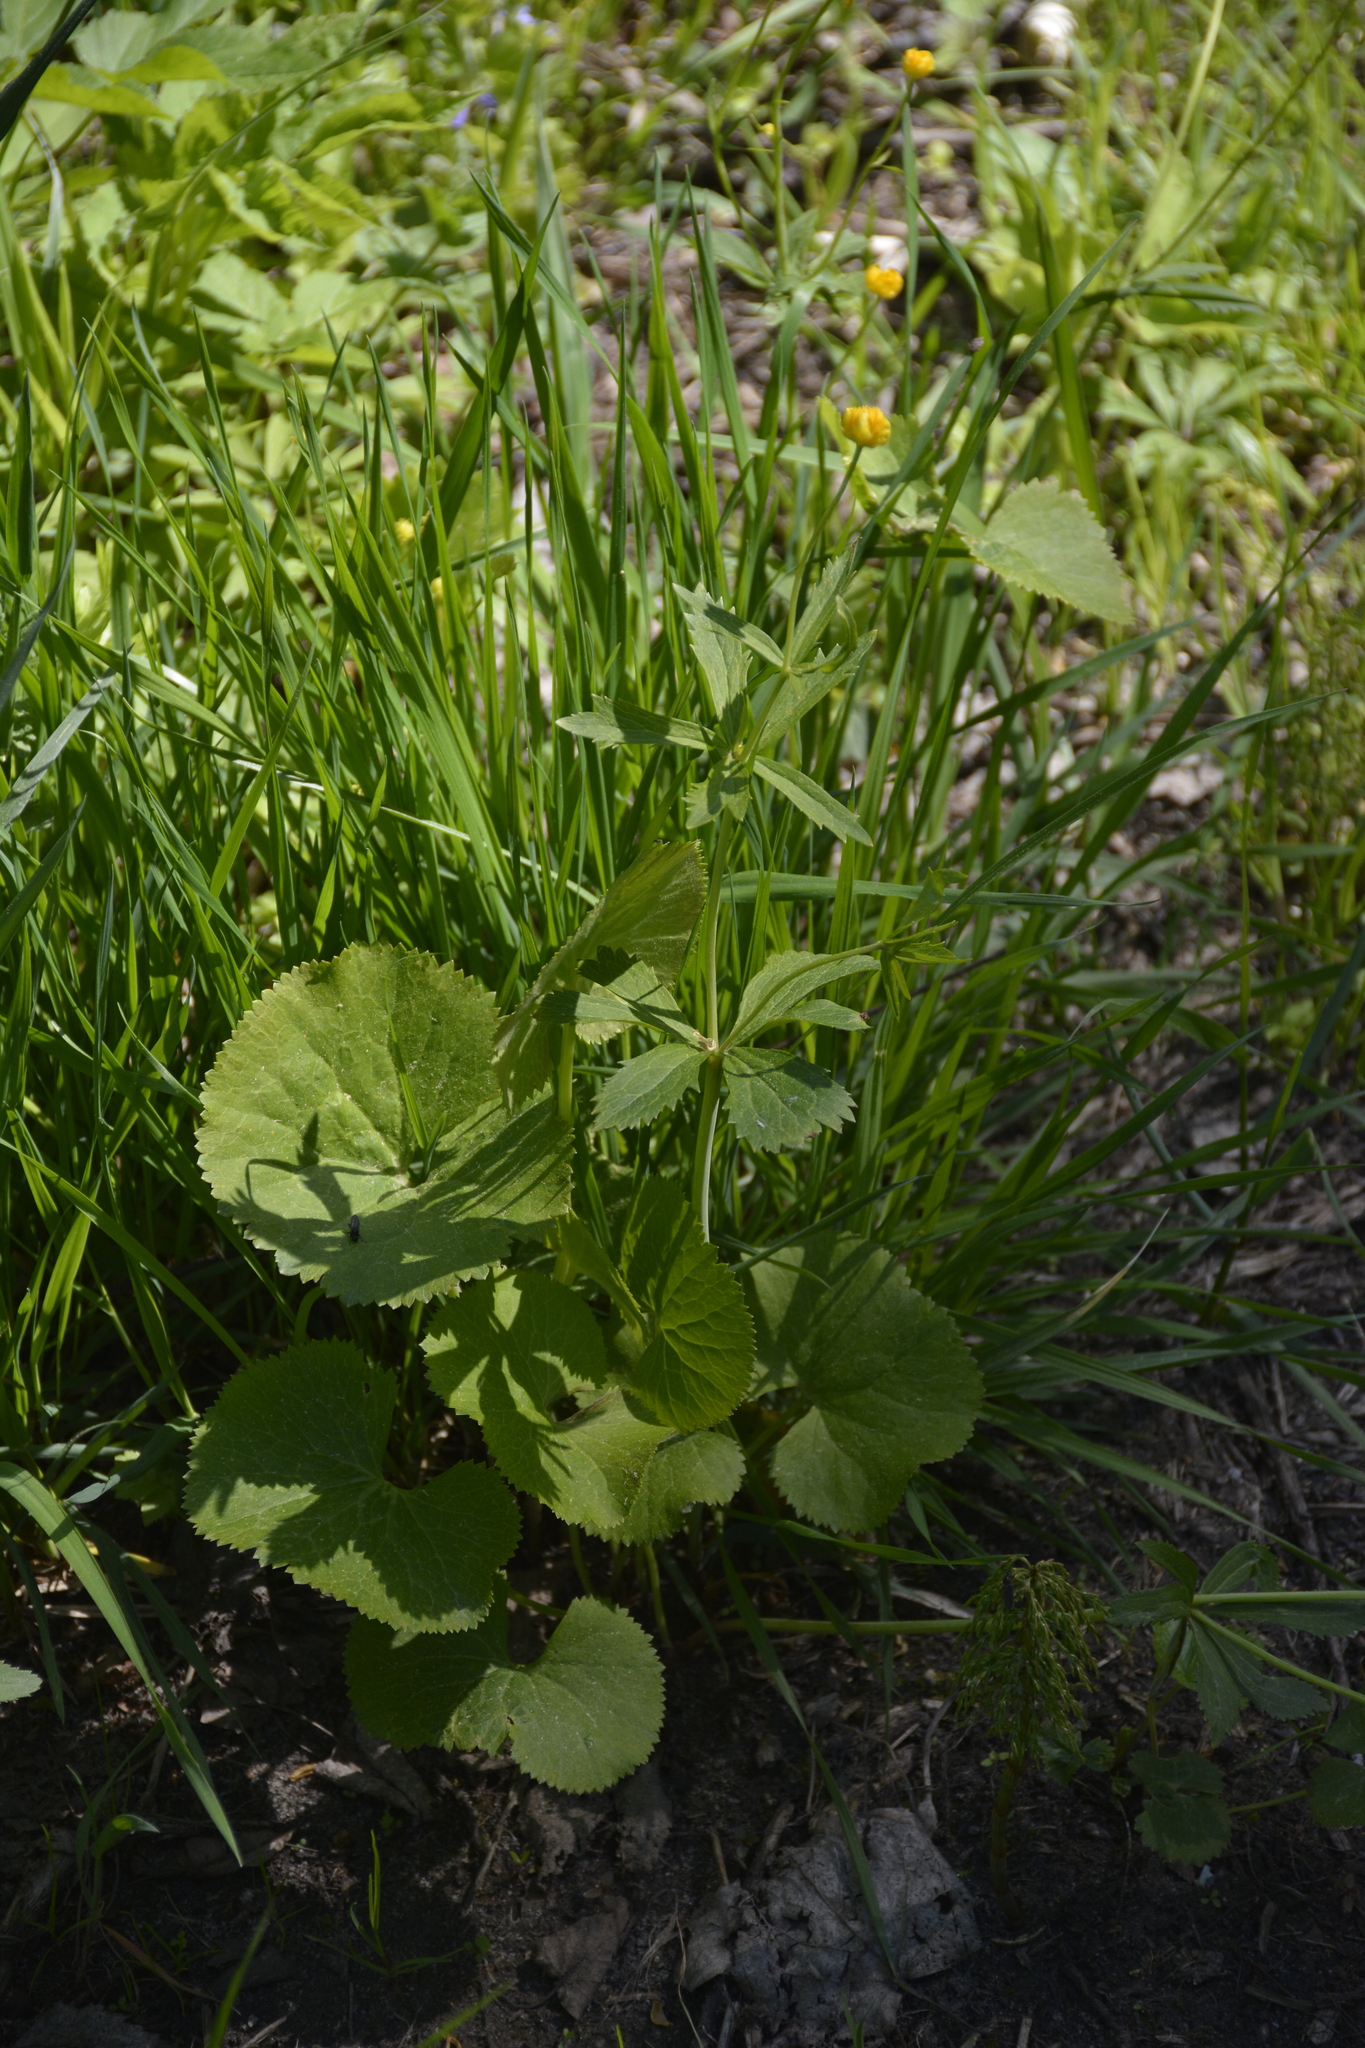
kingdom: Plantae
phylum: Tracheophyta
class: Magnoliopsida
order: Ranunculales
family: Ranunculaceae
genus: Ranunculus
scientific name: Ranunculus cassubicus
